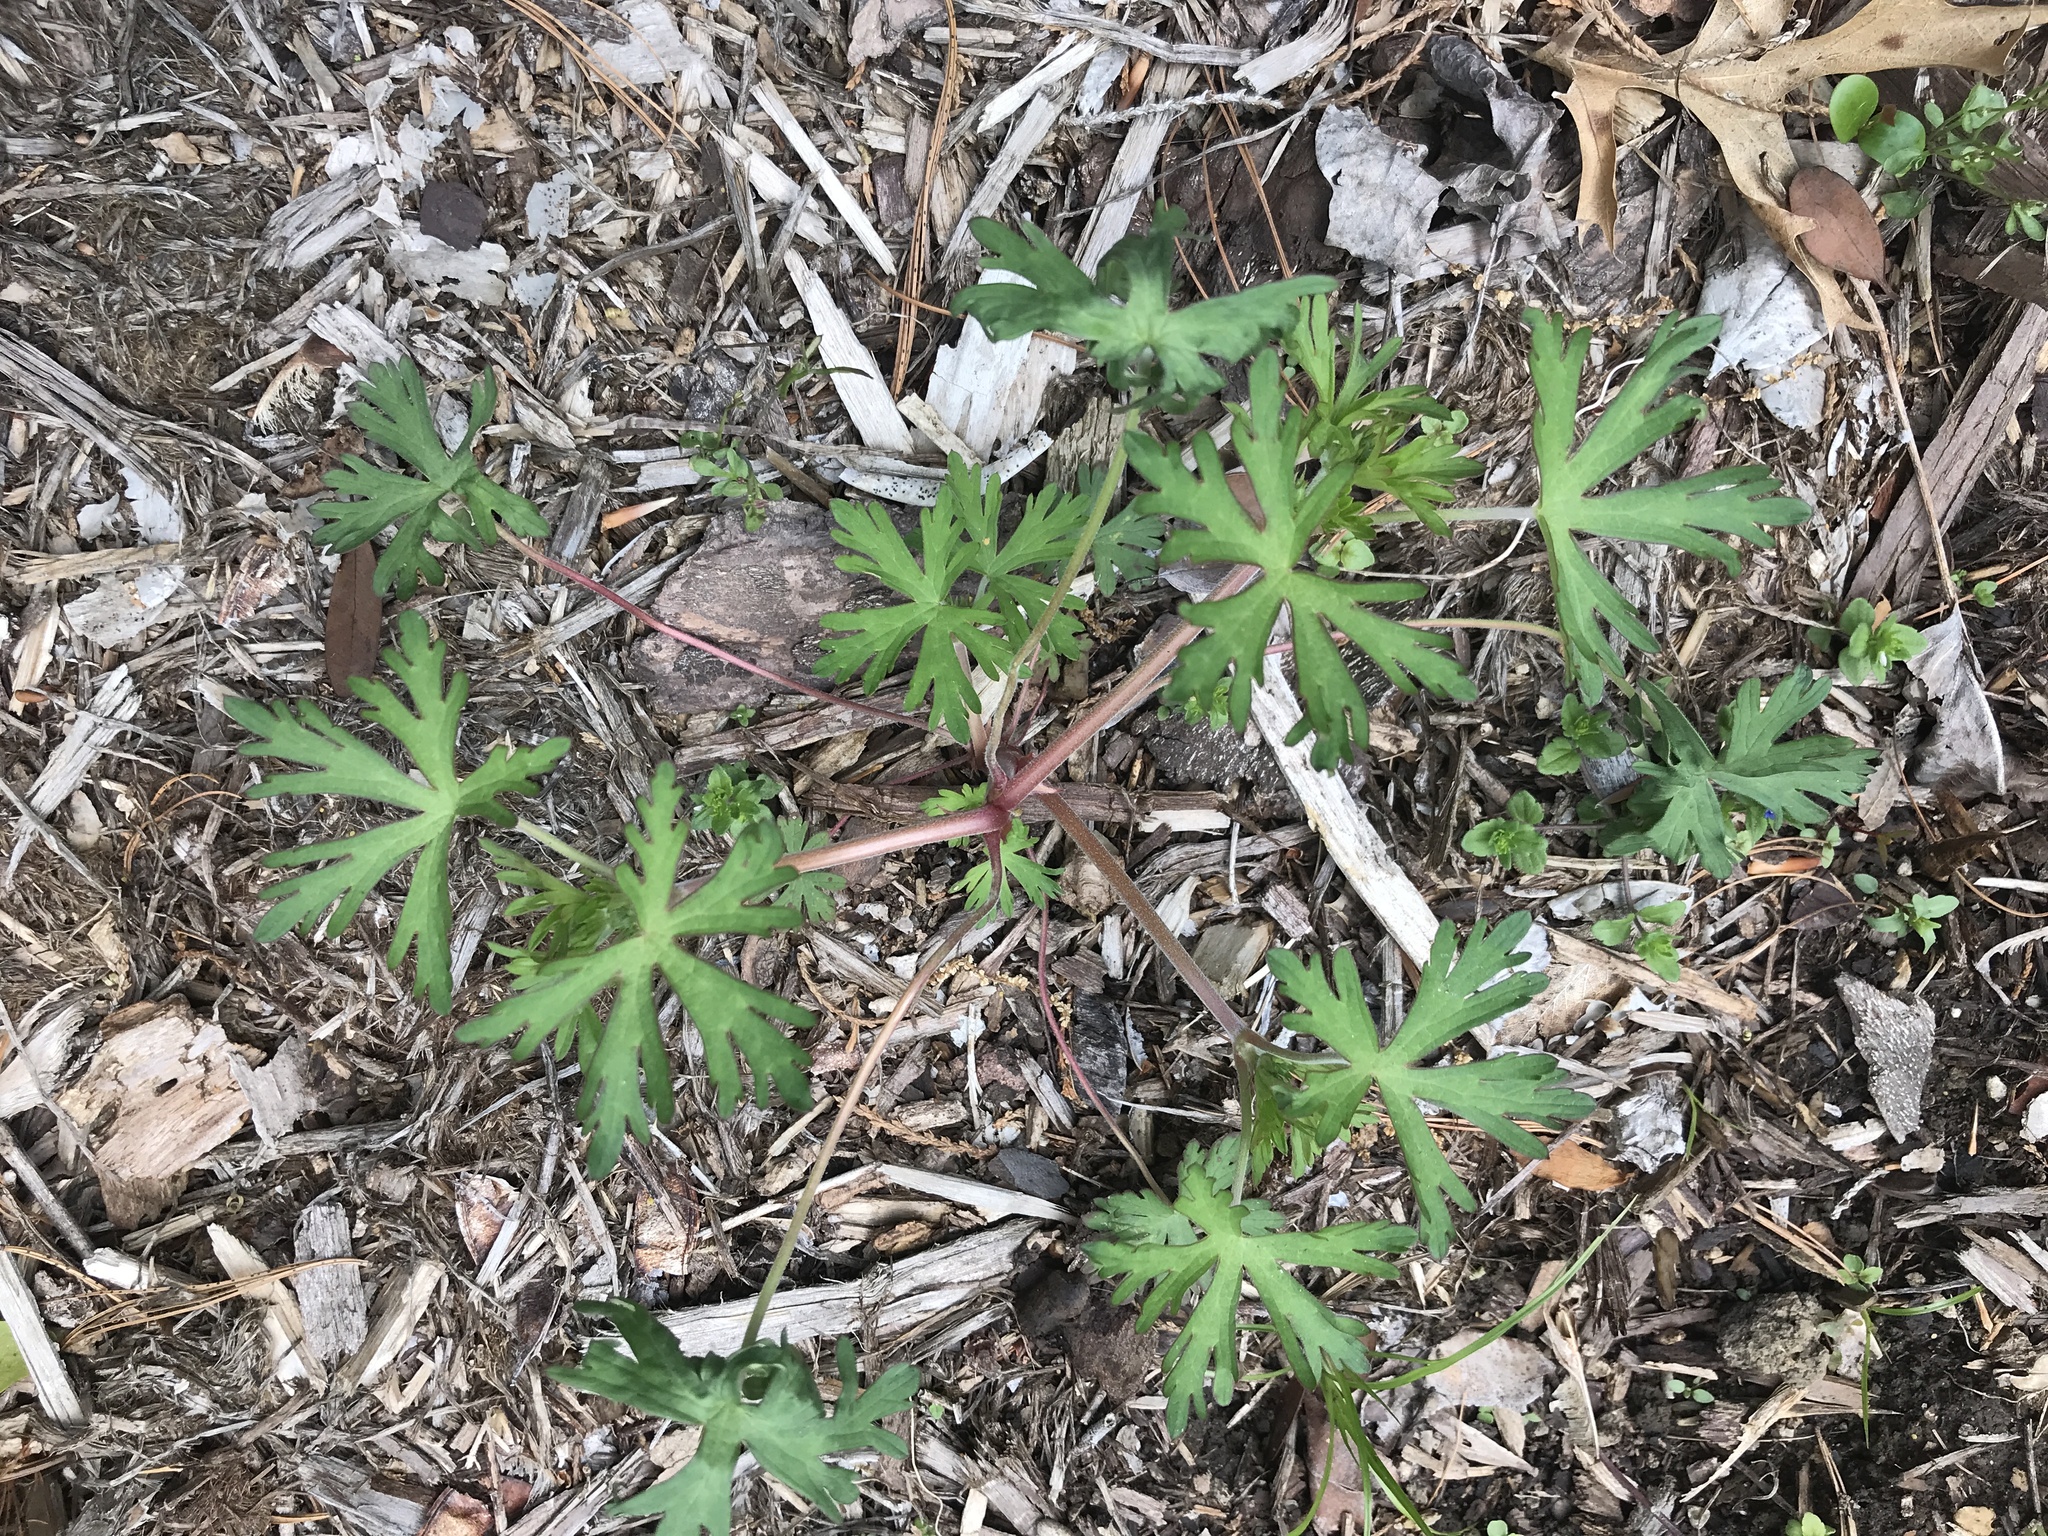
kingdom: Plantae
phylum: Tracheophyta
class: Magnoliopsida
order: Geraniales
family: Geraniaceae
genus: Geranium
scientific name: Geranium carolinianum
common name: Carolina crane's-bill
